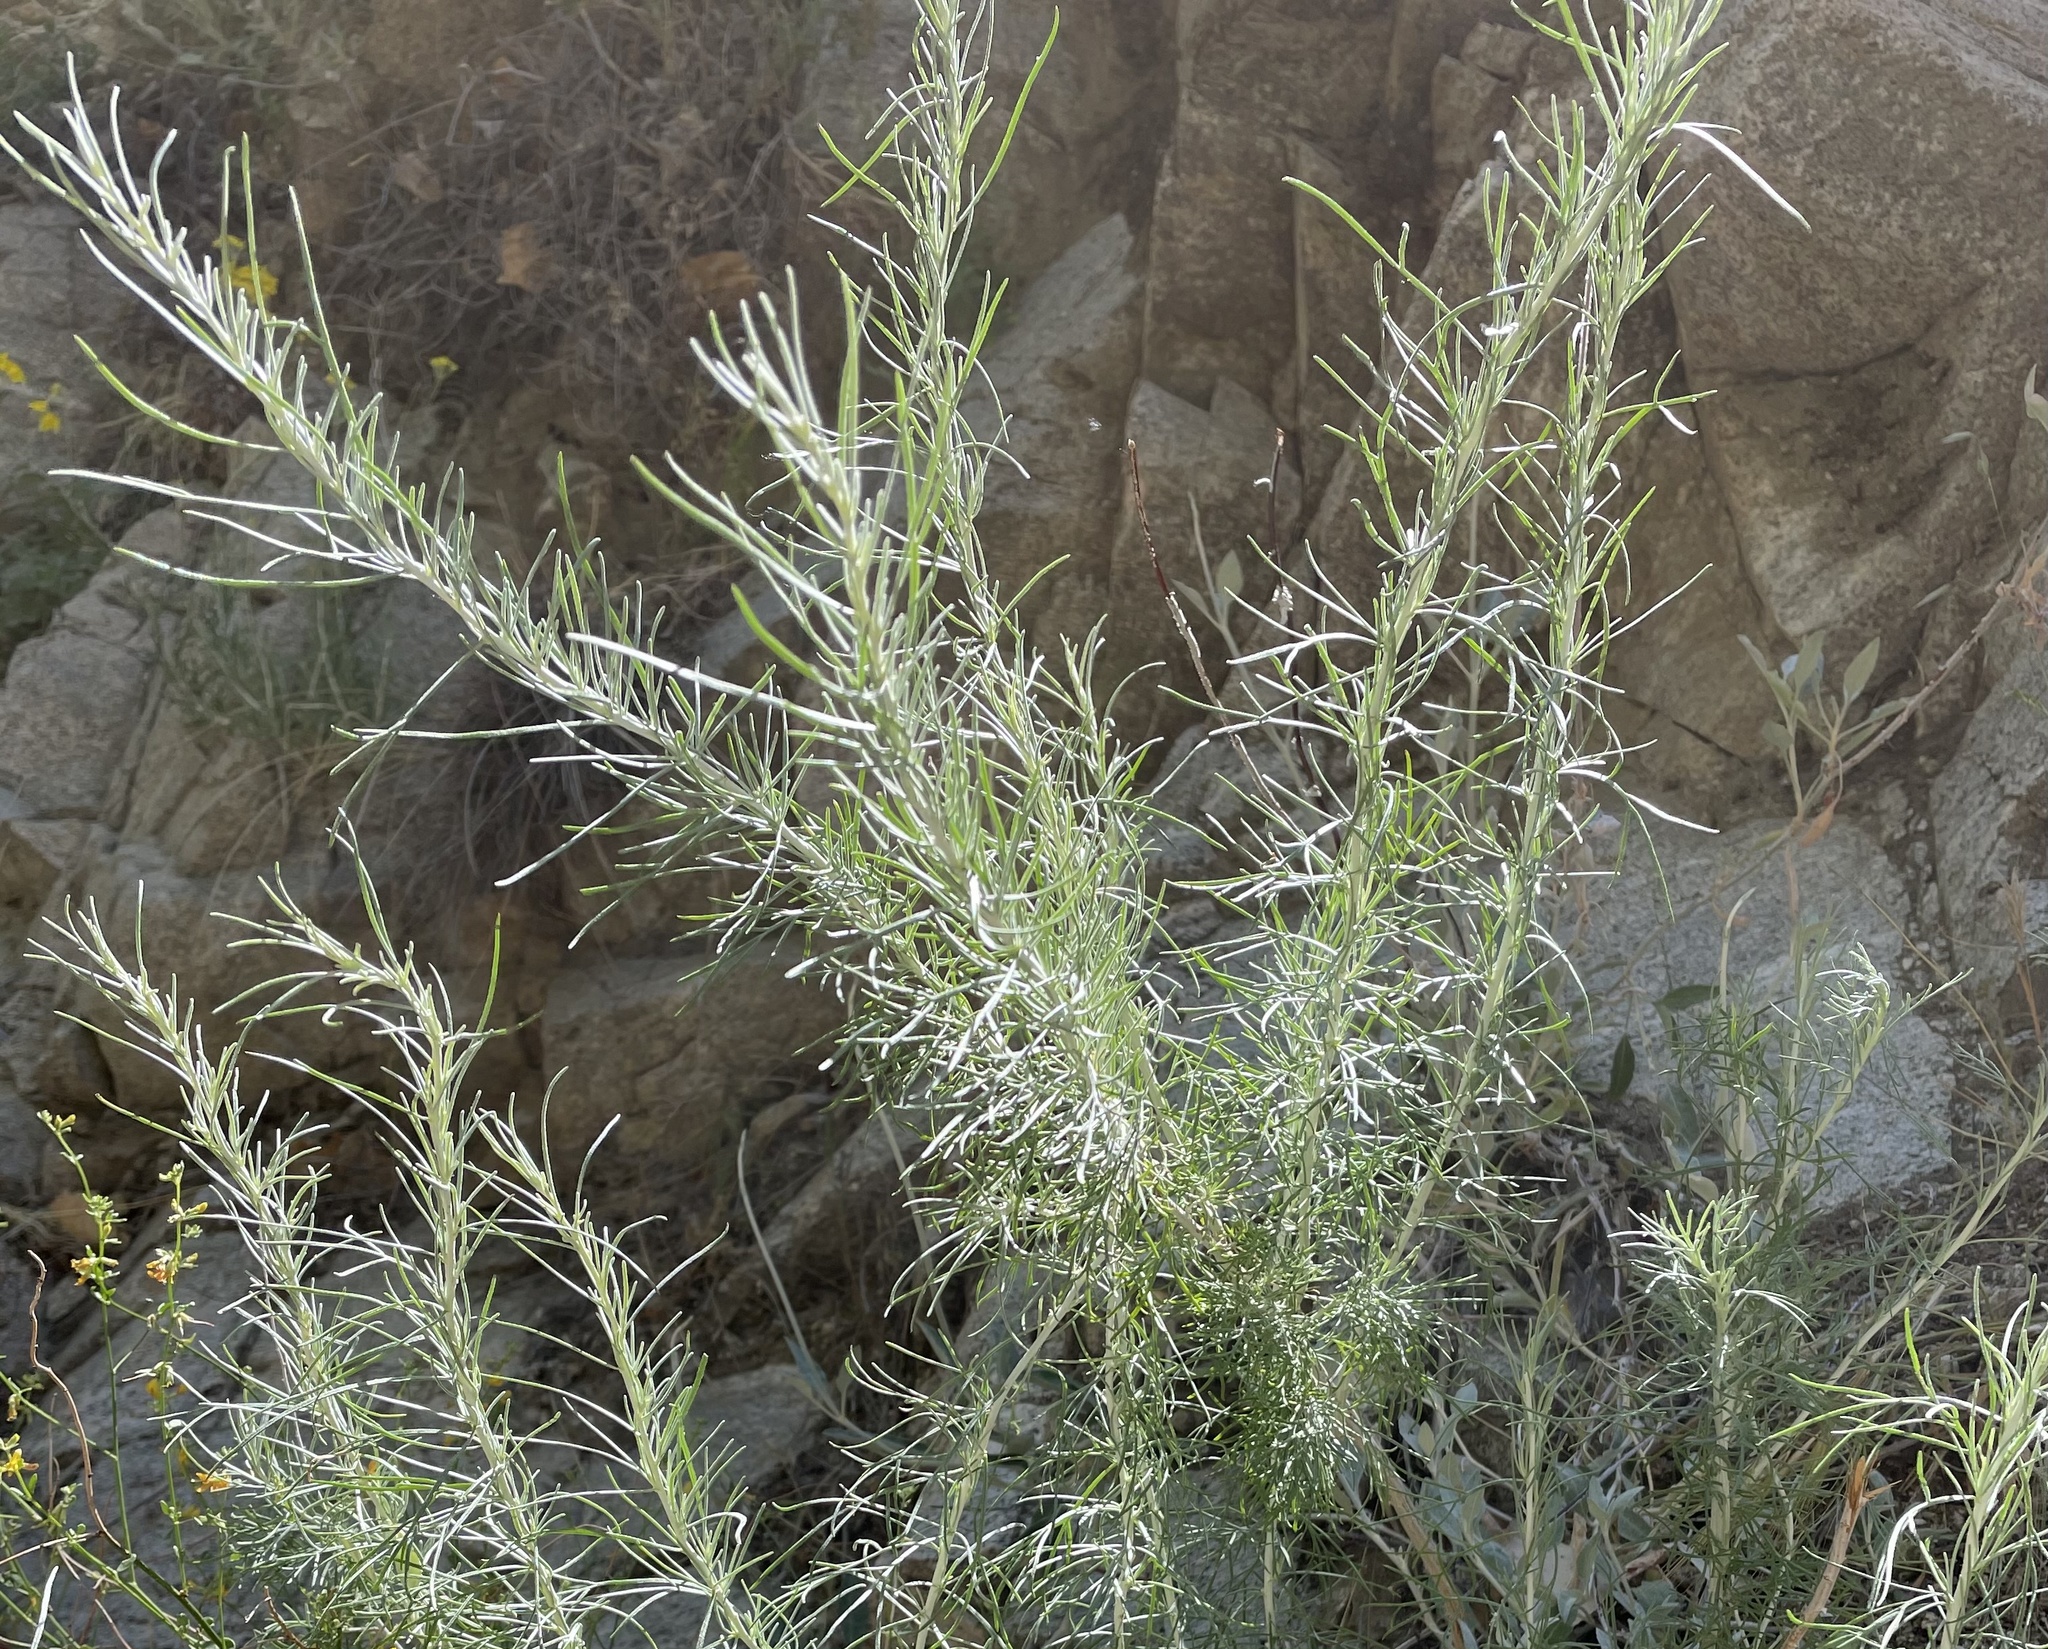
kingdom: Plantae
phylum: Tracheophyta
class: Magnoliopsida
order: Asterales
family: Asteraceae
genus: Artemisia
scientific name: Artemisia californica
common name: California sagebrush
